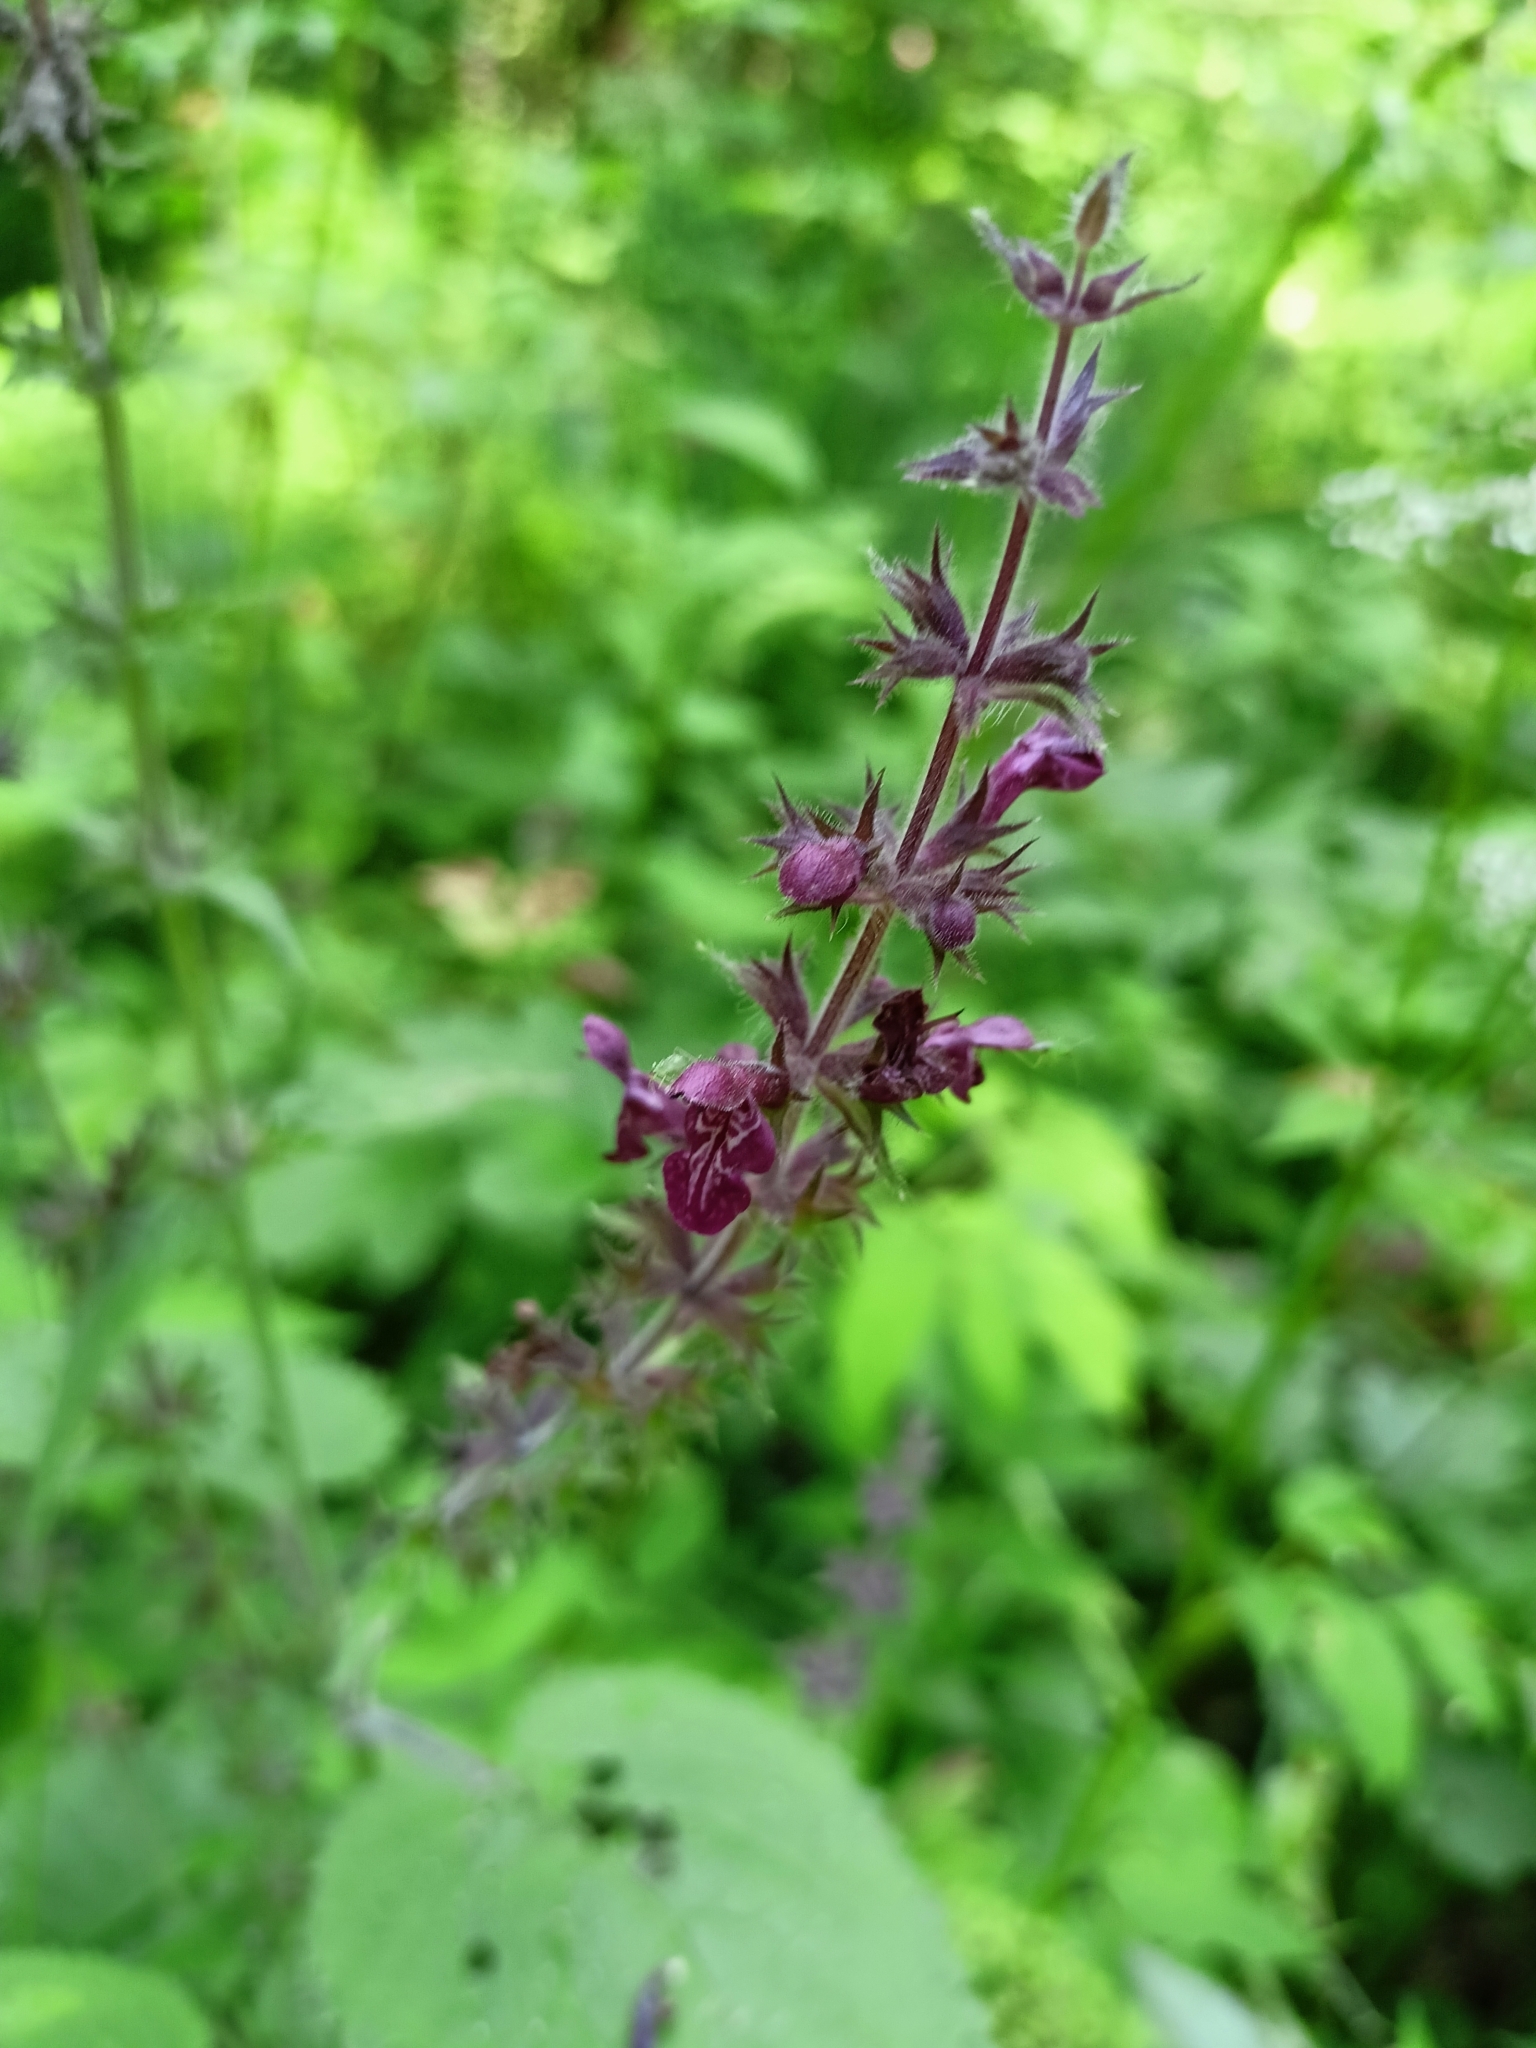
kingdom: Plantae
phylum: Tracheophyta
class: Magnoliopsida
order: Lamiales
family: Lamiaceae
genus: Stachys
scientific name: Stachys sylvatica
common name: Hedge woundwort
